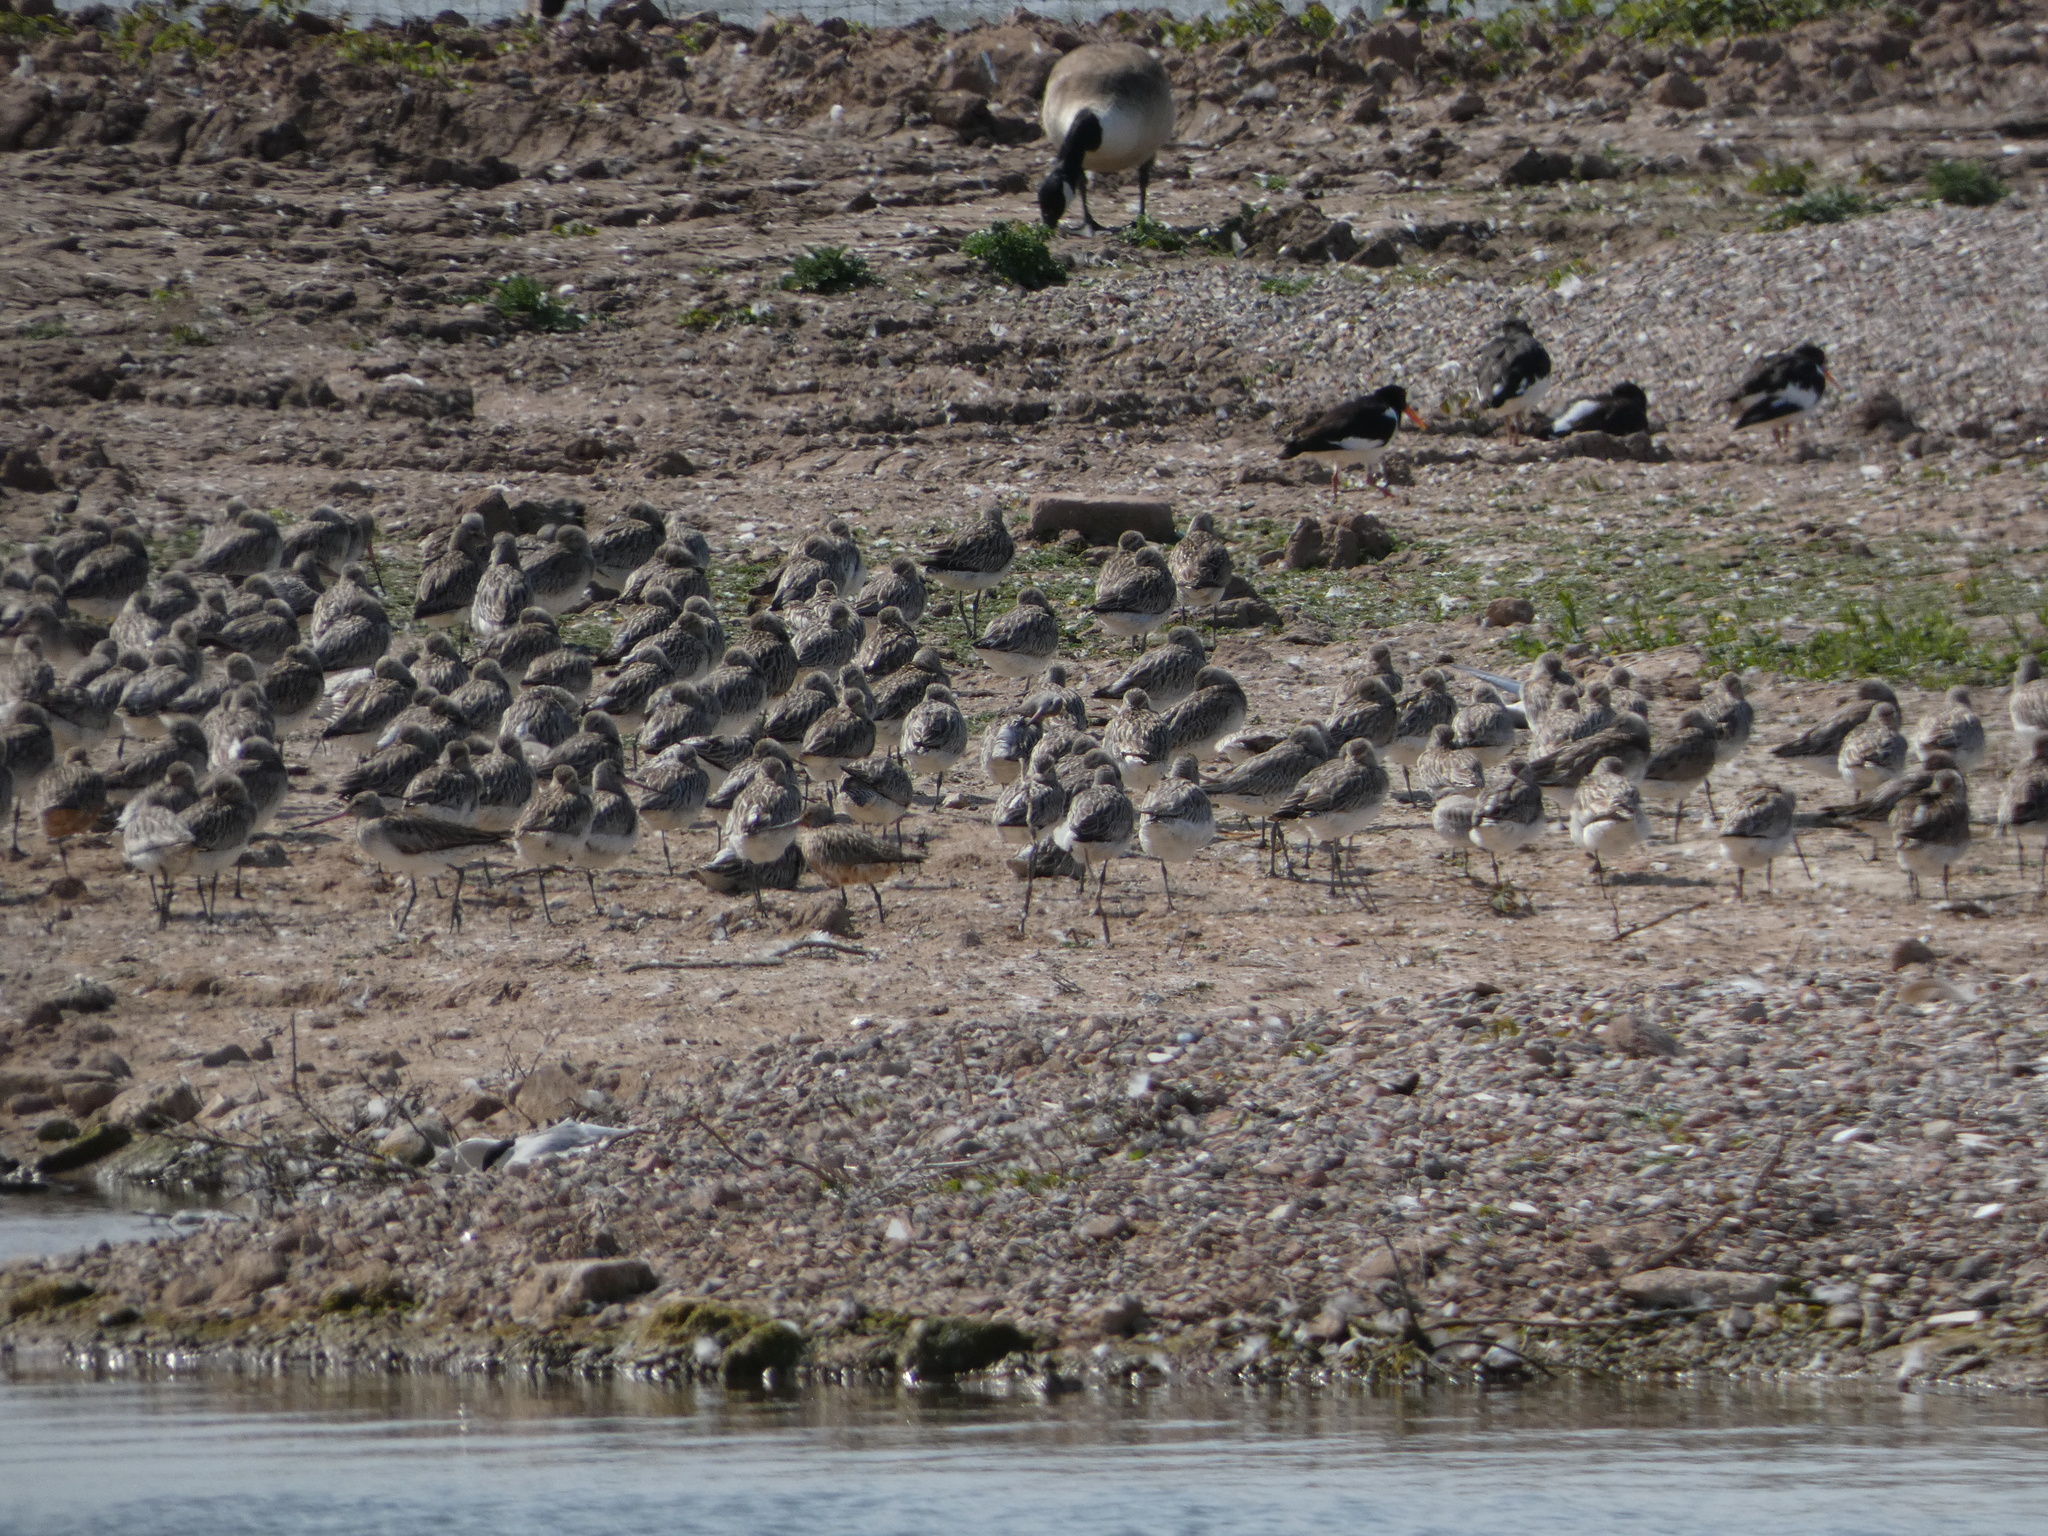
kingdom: Animalia
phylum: Chordata
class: Aves
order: Charadriiformes
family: Scolopacidae
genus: Limosa
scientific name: Limosa lapponica
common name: Bar-tailed godwit
